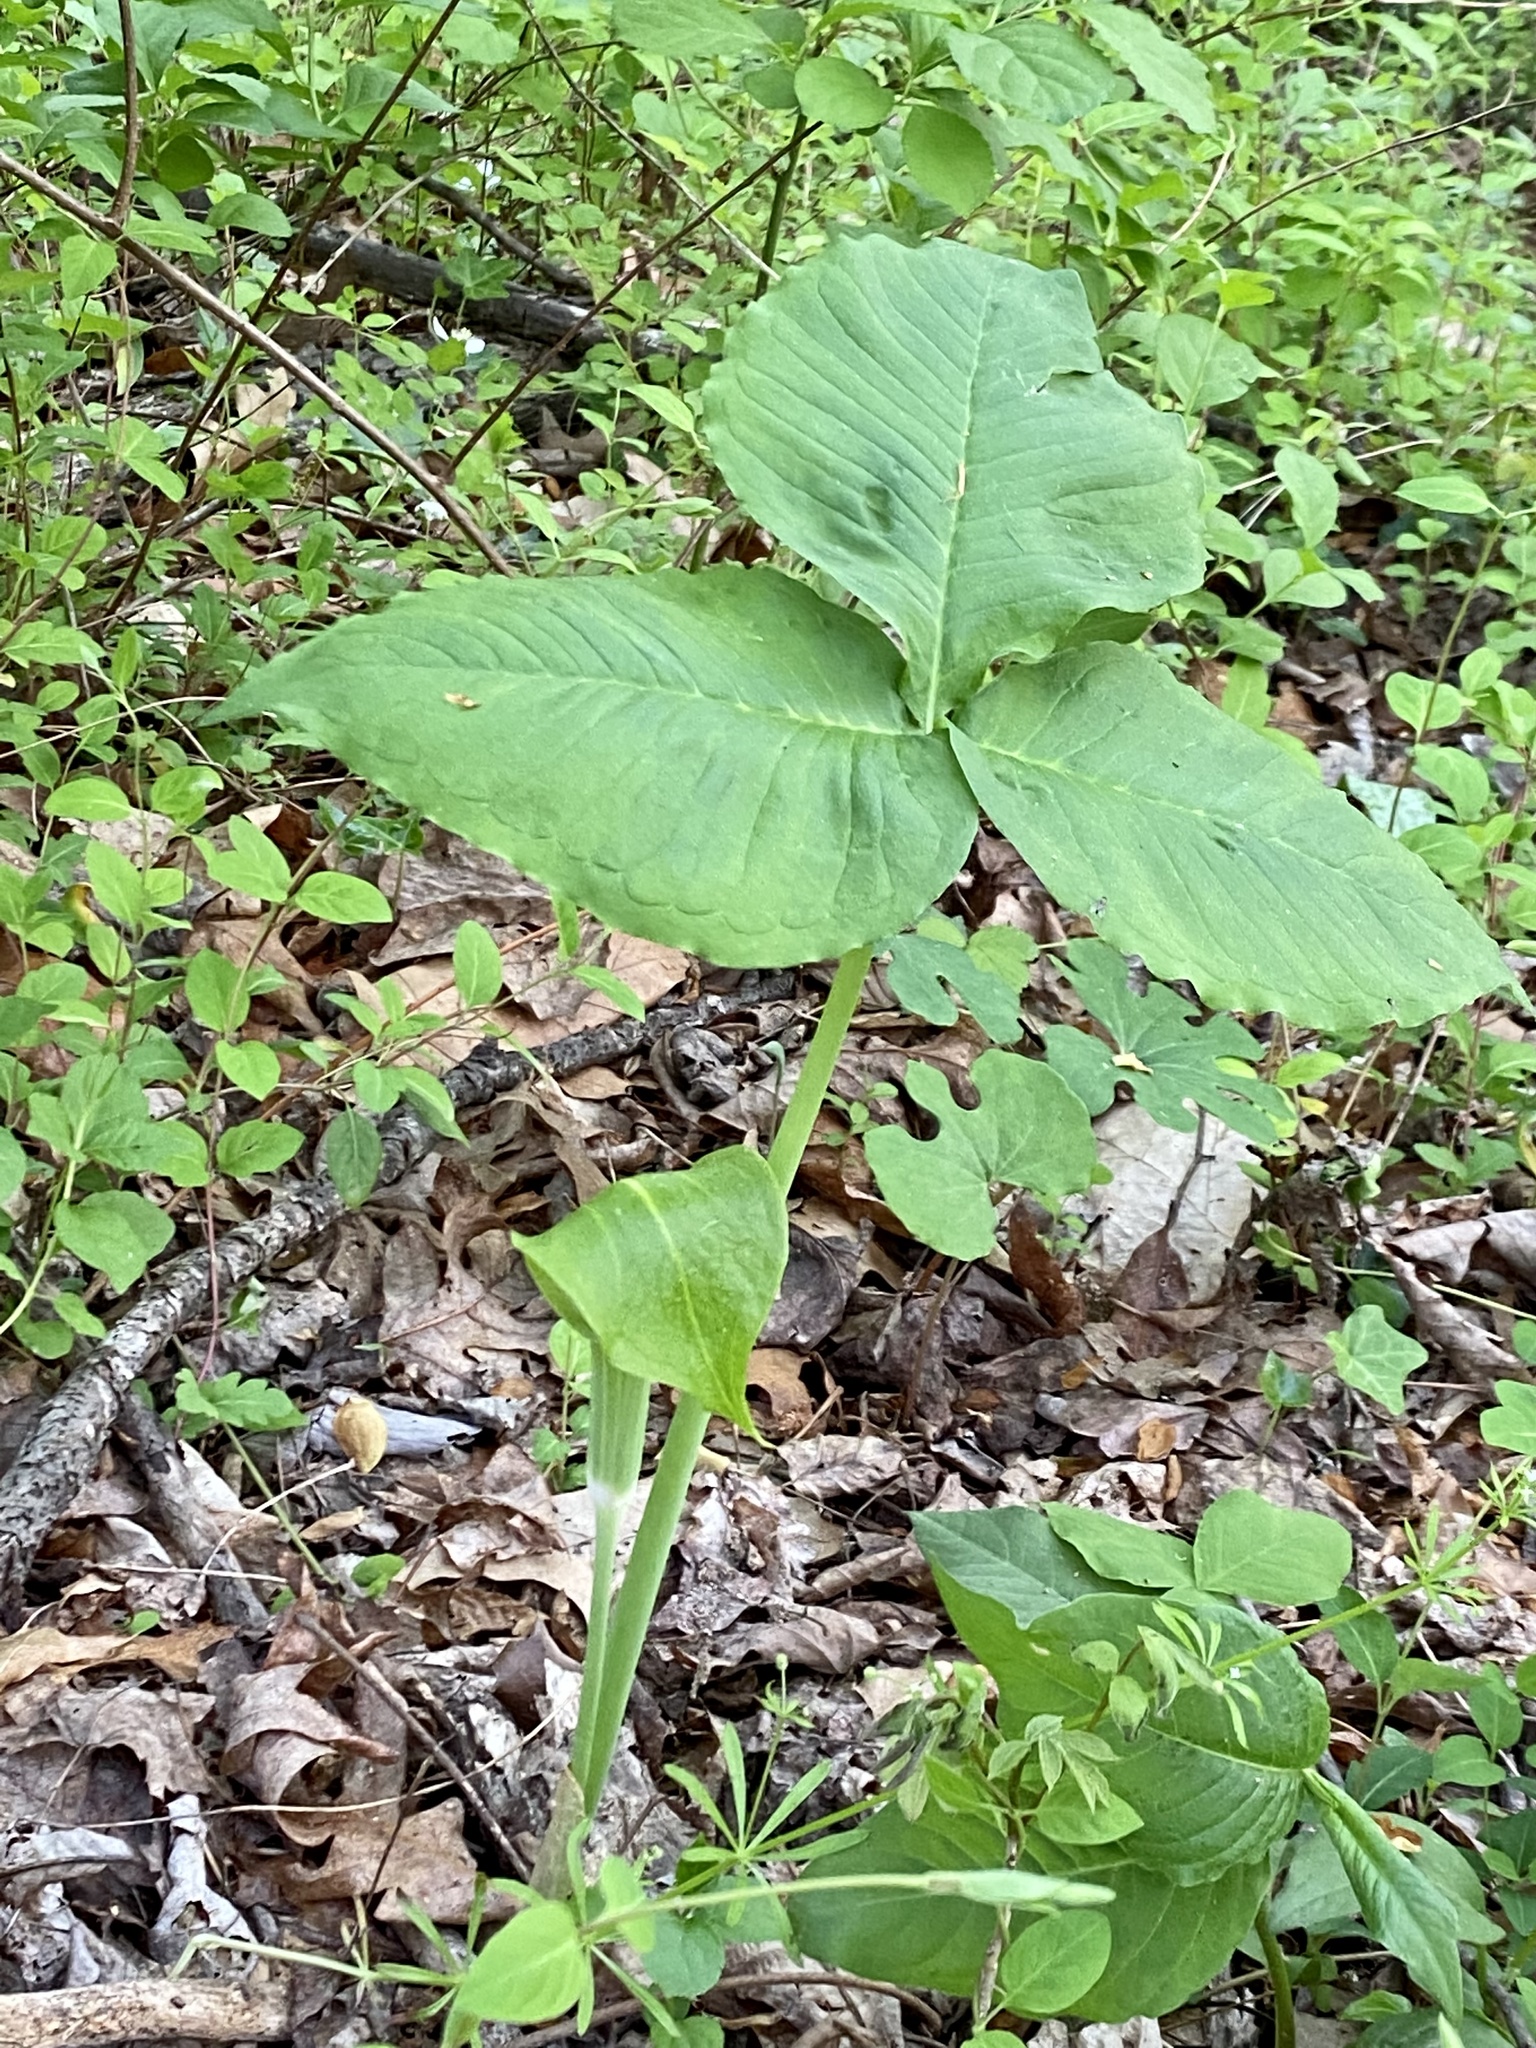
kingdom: Plantae
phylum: Tracheophyta
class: Liliopsida
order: Alismatales
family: Araceae
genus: Arisaema
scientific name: Arisaema triphyllum
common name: Jack-in-the-pulpit
